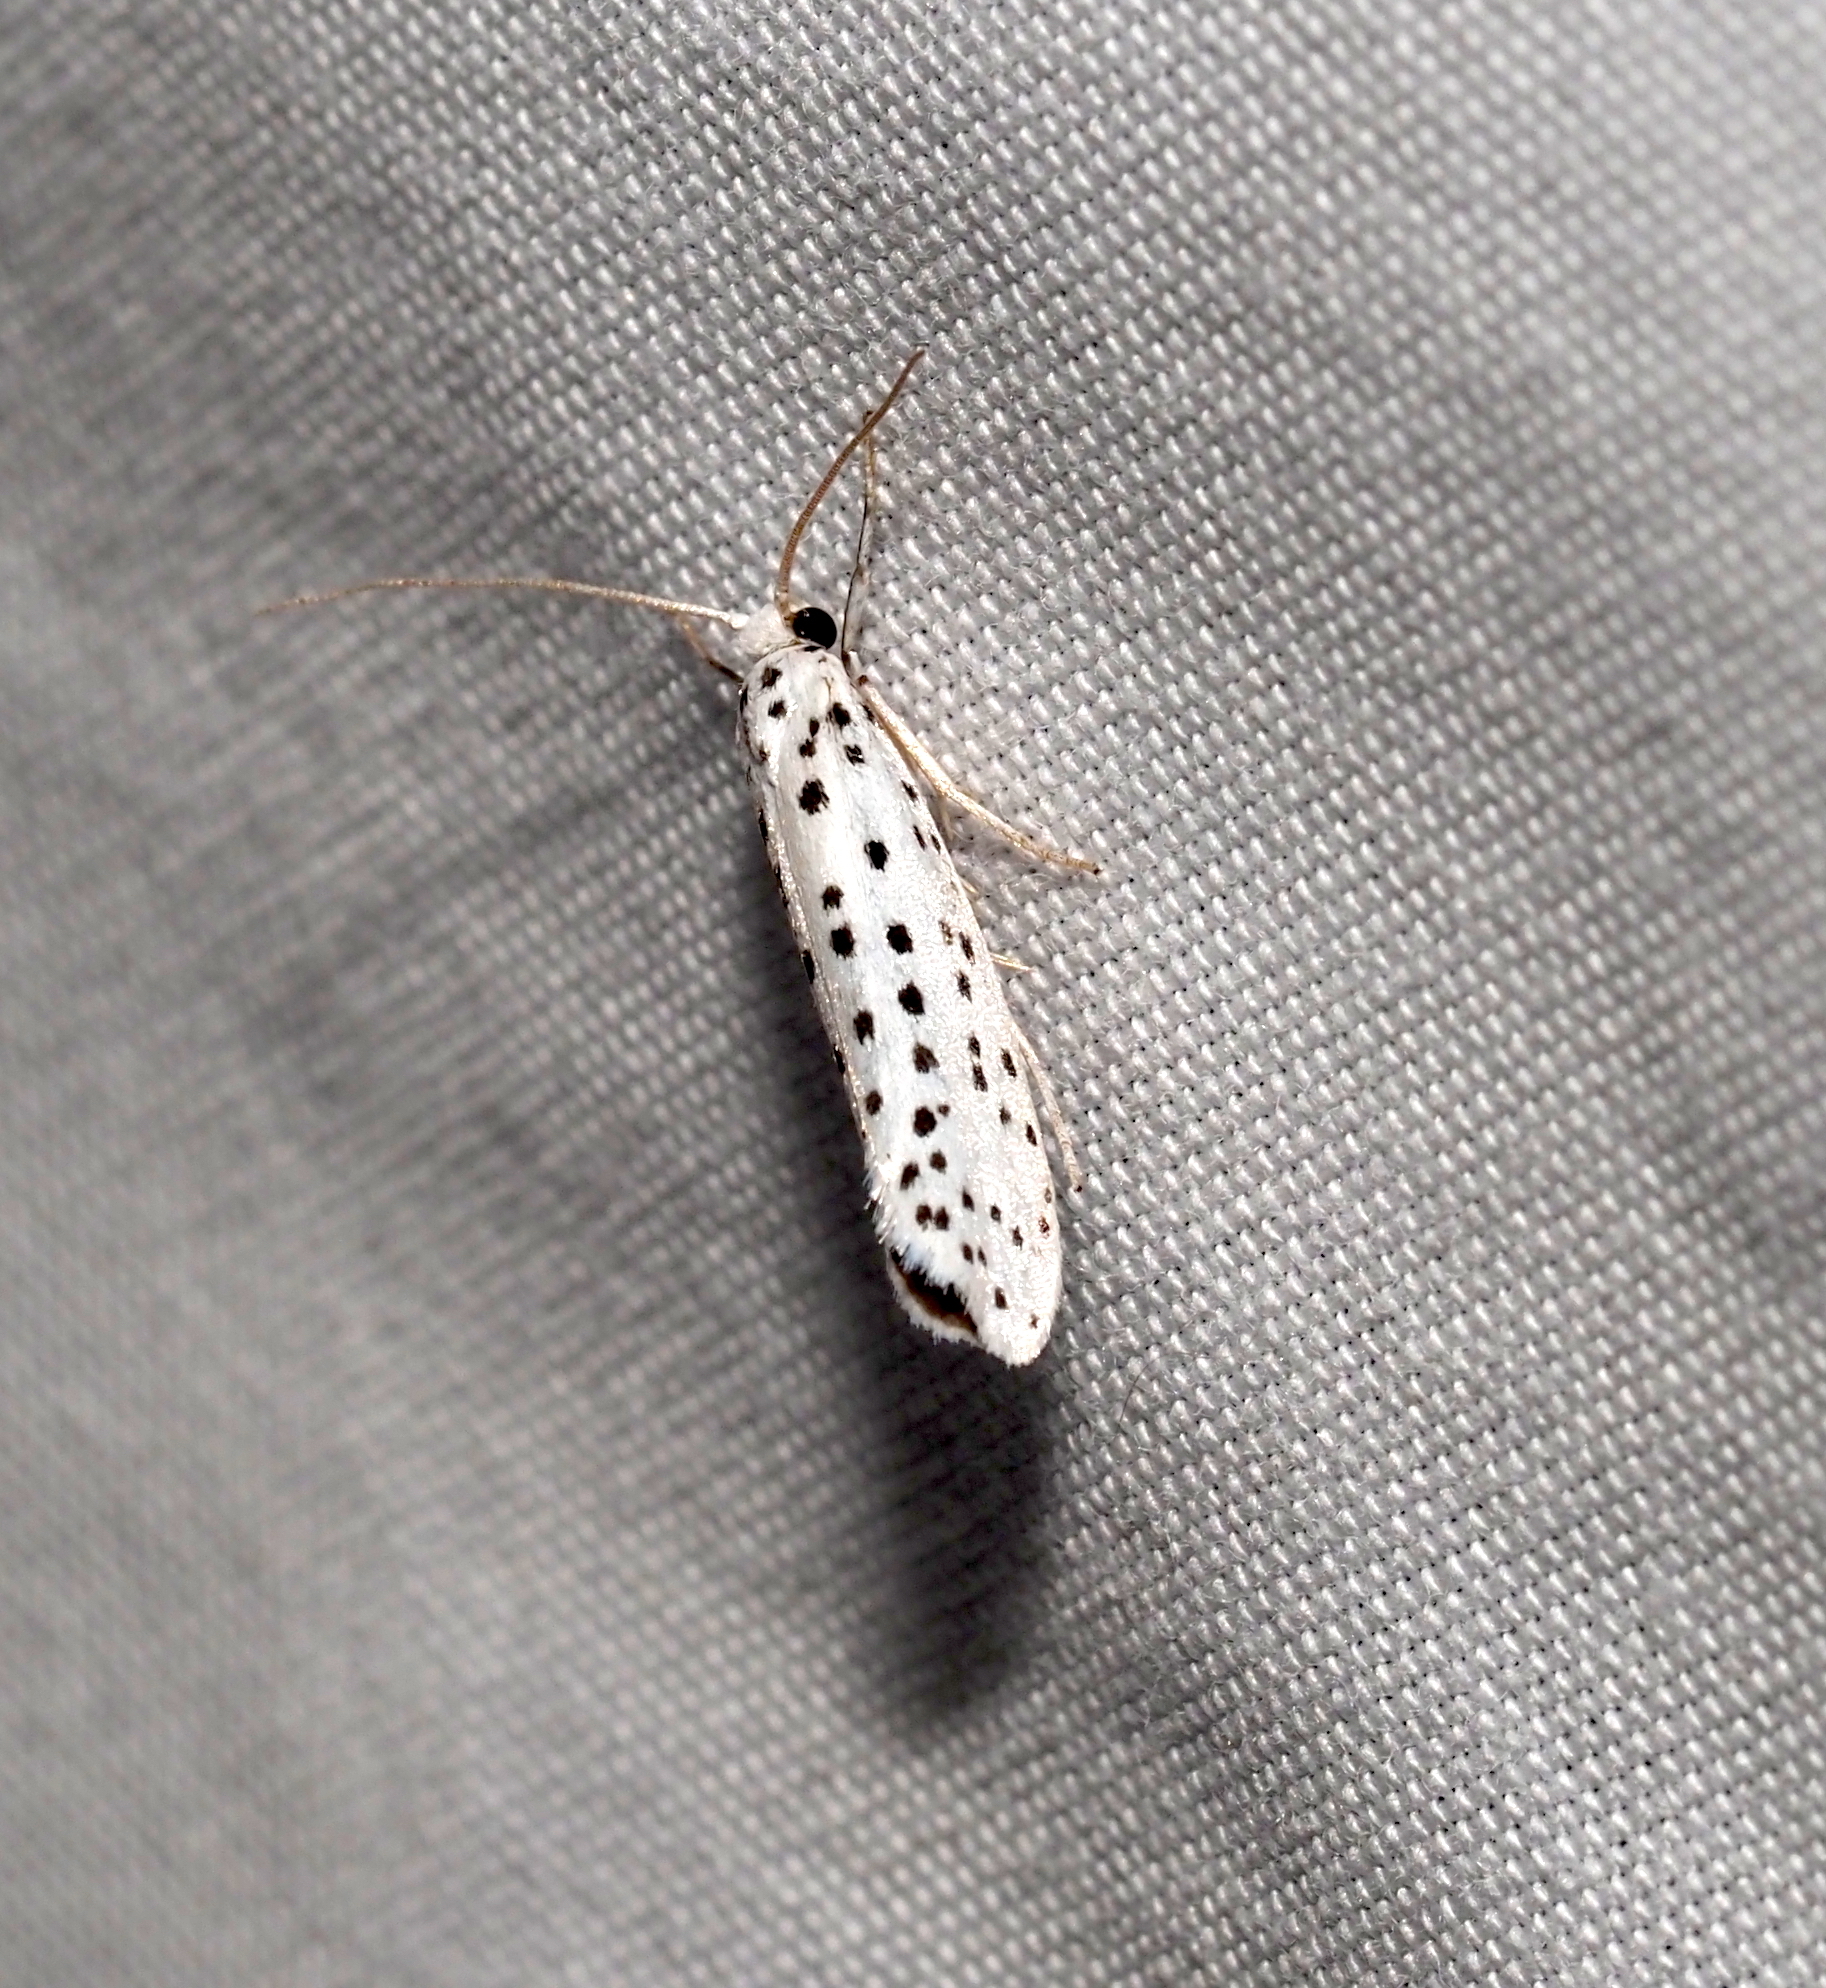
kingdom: Animalia
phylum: Arthropoda
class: Insecta
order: Lepidoptera
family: Yponomeutidae
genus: Yponomeuta
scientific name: Yponomeuta multipunctella
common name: American ermine moth
